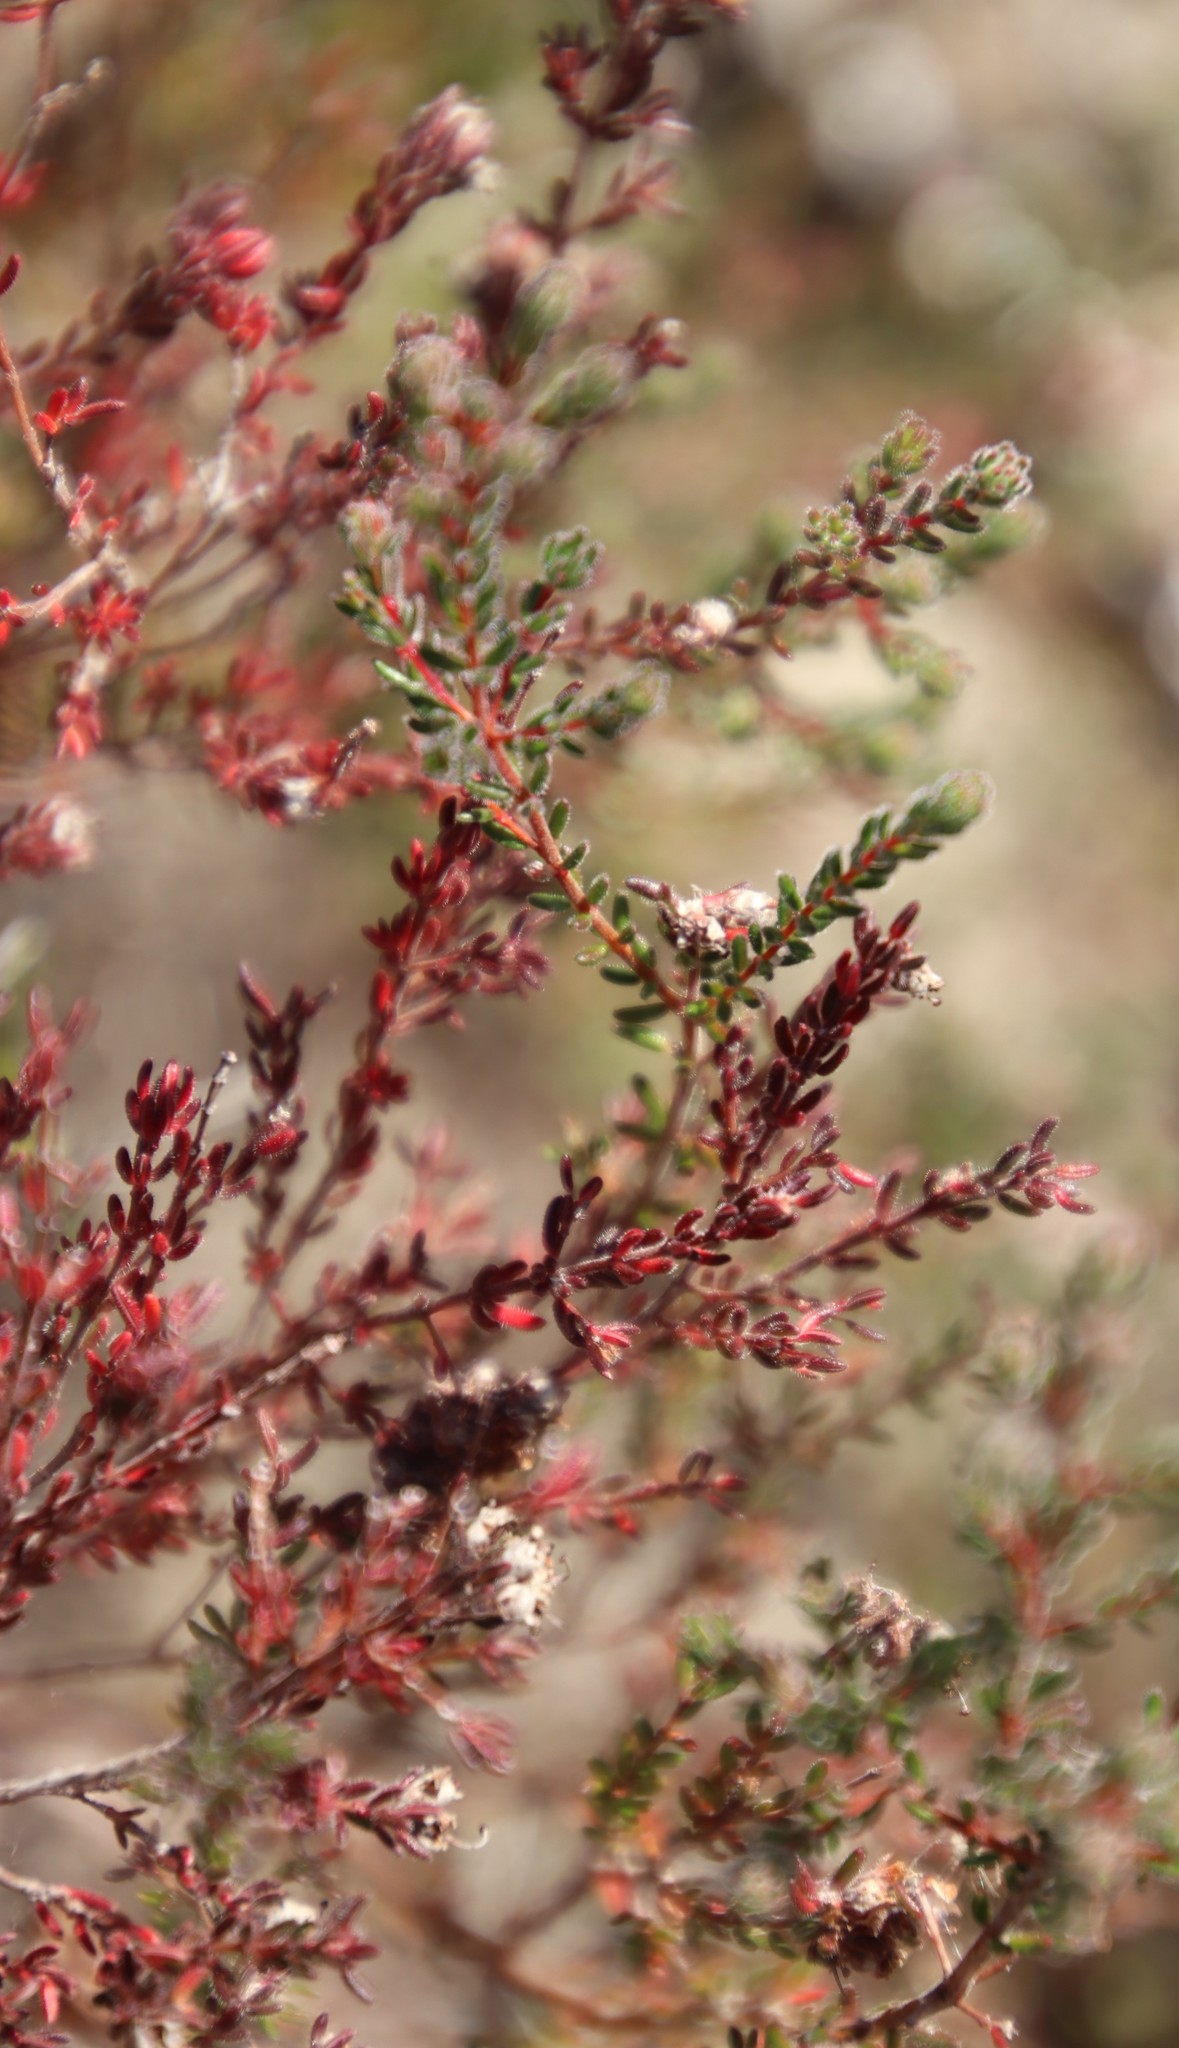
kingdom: Plantae
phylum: Tracheophyta
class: Magnoliopsida
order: Ericales
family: Ericaceae
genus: Erica
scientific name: Erica turgida
